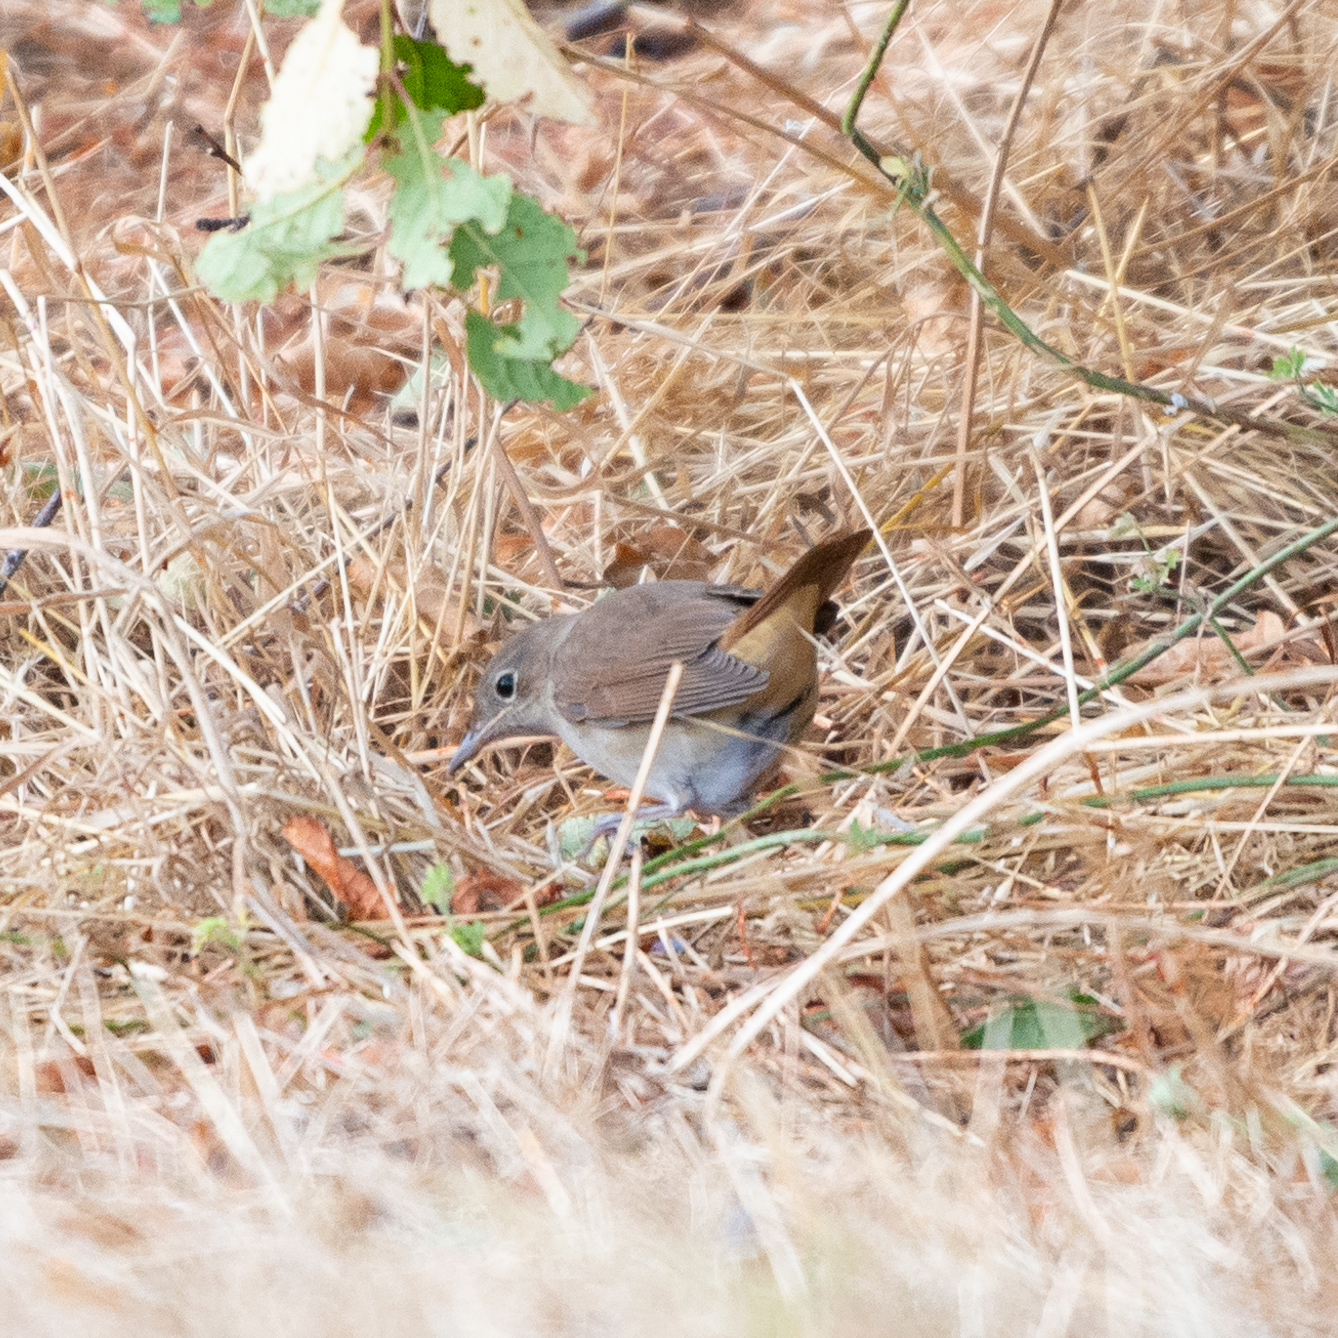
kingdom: Animalia
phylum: Chordata
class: Aves
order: Passeriformes
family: Muscicapidae
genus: Luscinia
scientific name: Luscinia megarhynchos
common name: Common nightingale
